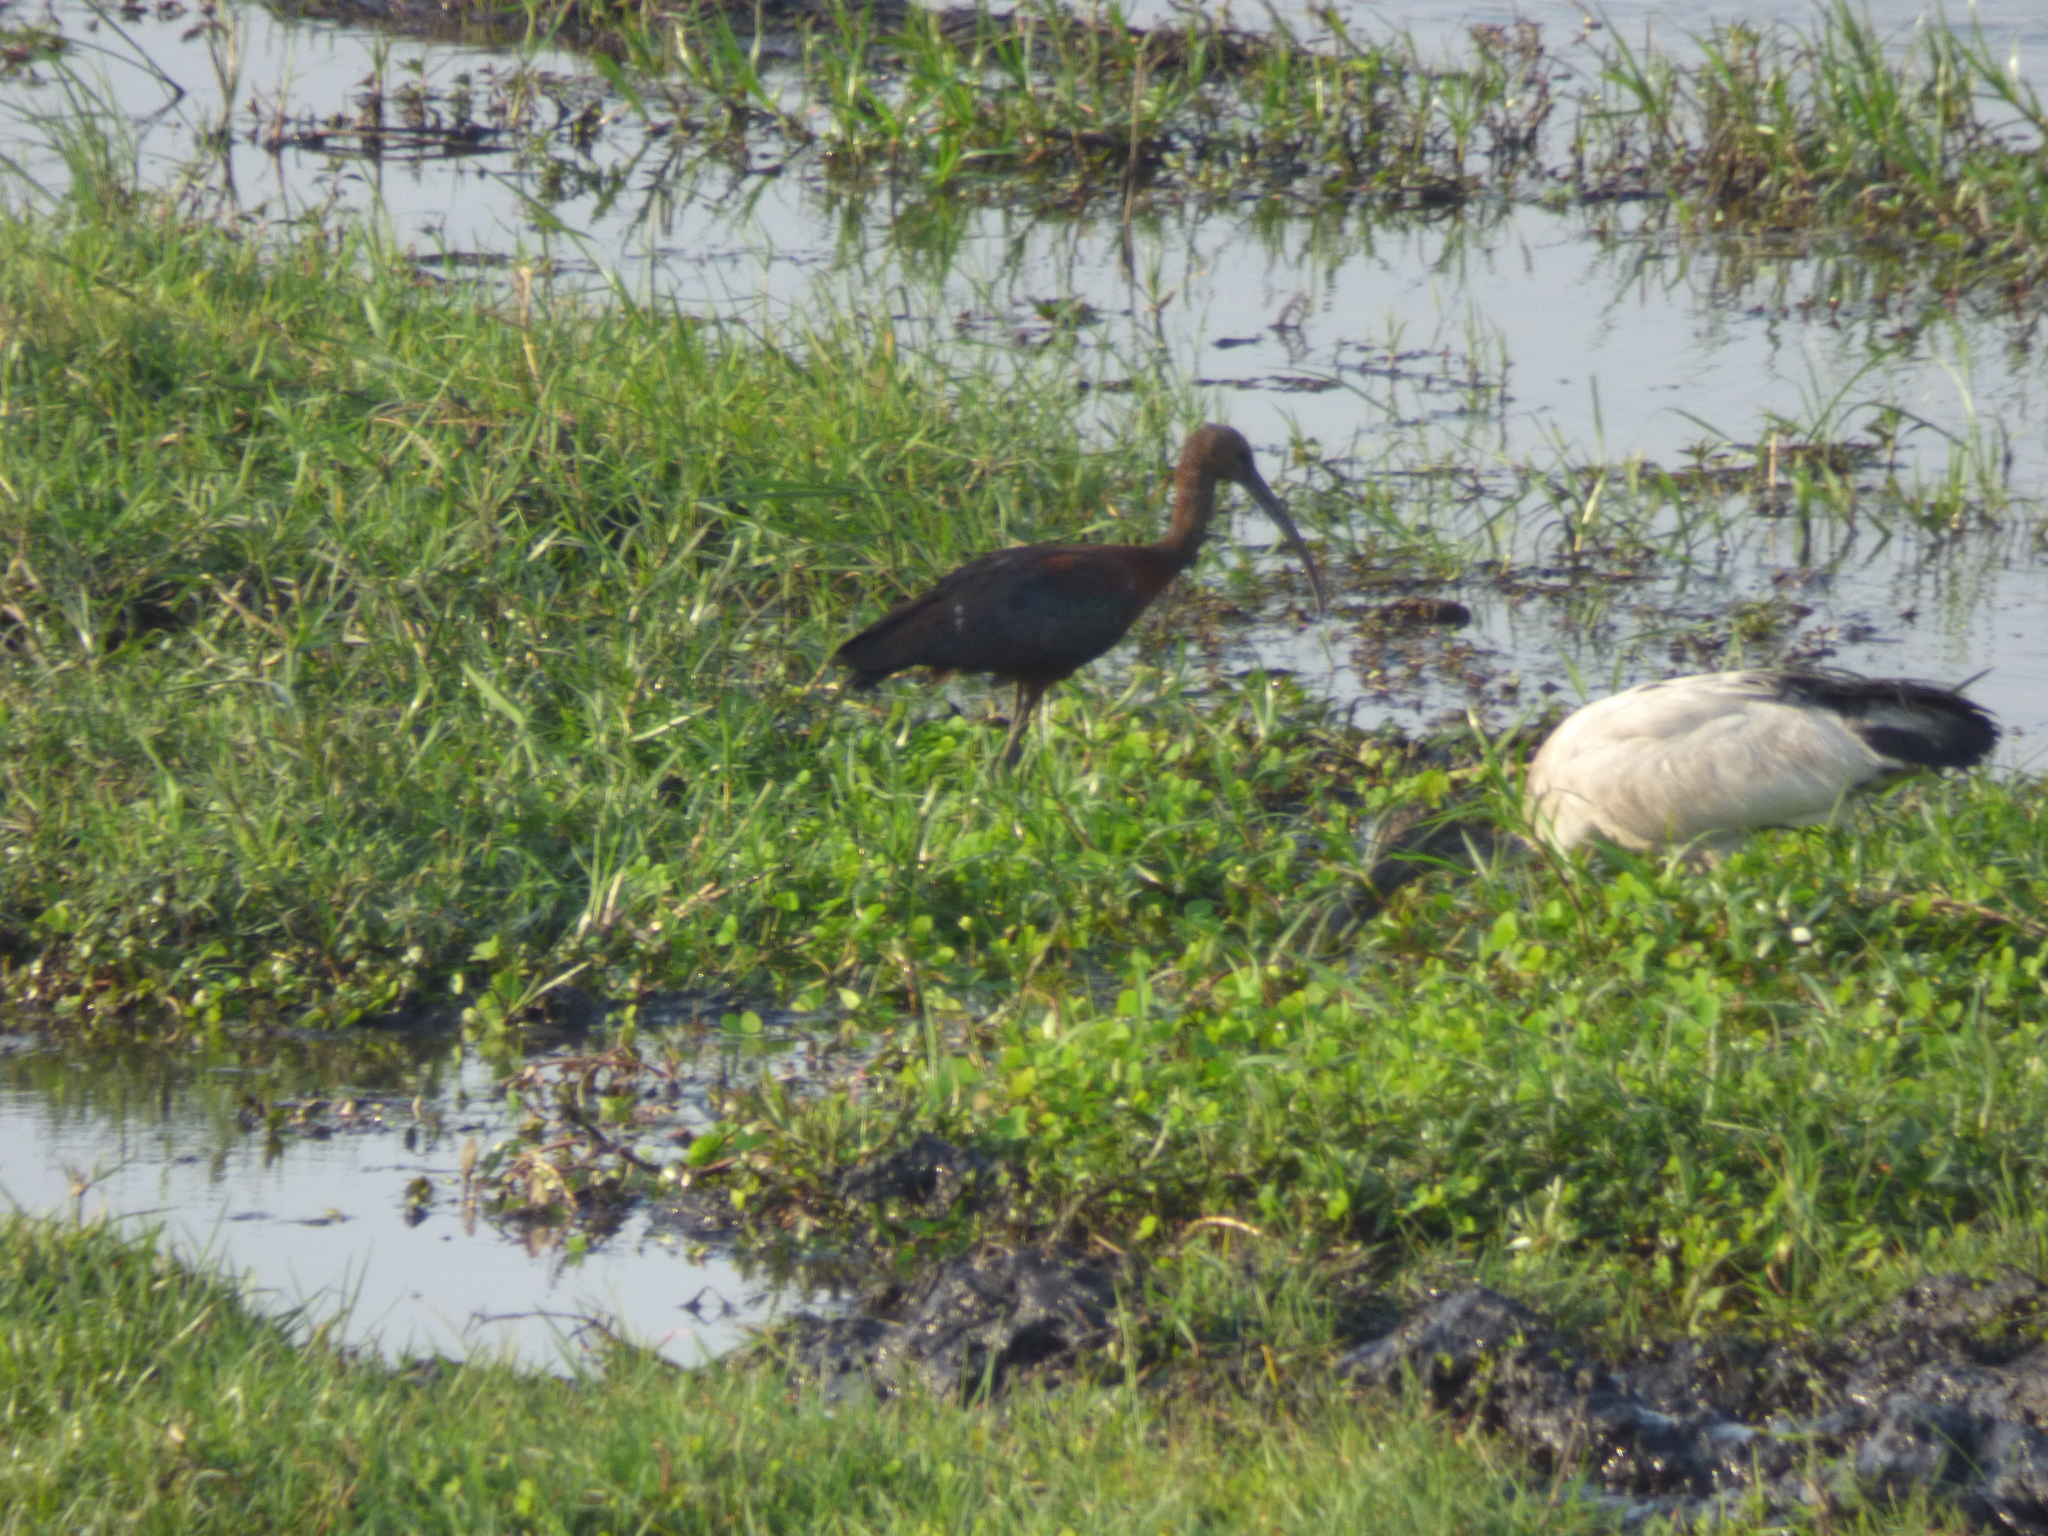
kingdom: Animalia
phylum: Chordata
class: Aves
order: Pelecaniformes
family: Threskiornithidae
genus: Threskiornis
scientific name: Threskiornis aethiopicus
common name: Sacred ibis
